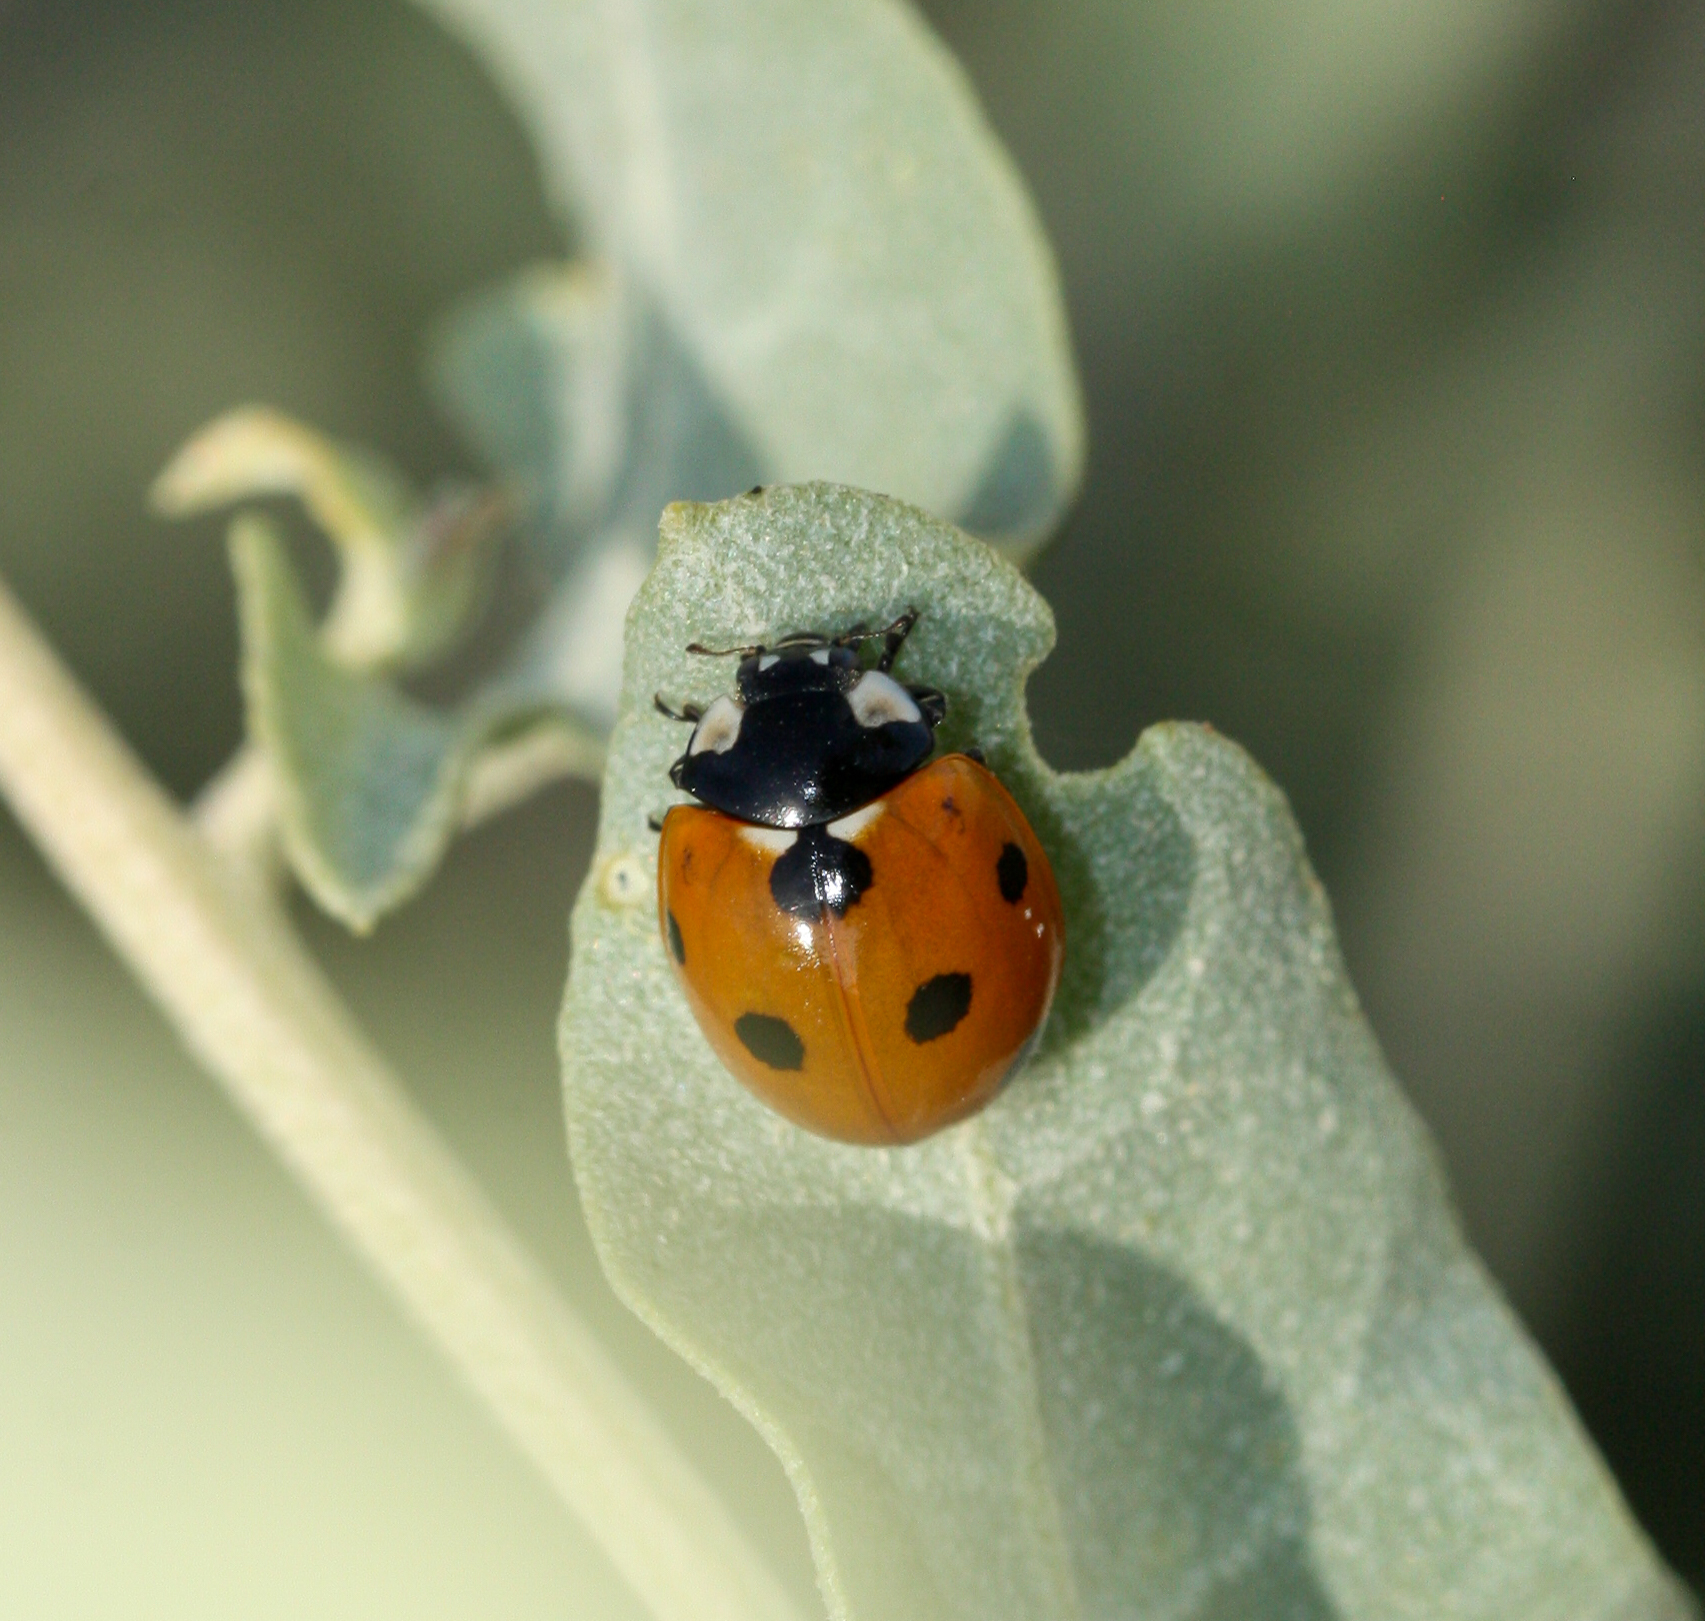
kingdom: Animalia
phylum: Arthropoda
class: Insecta
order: Coleoptera
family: Coccinellidae
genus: Coccinella
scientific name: Coccinella septempunctata
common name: Sevenspotted lady beetle
